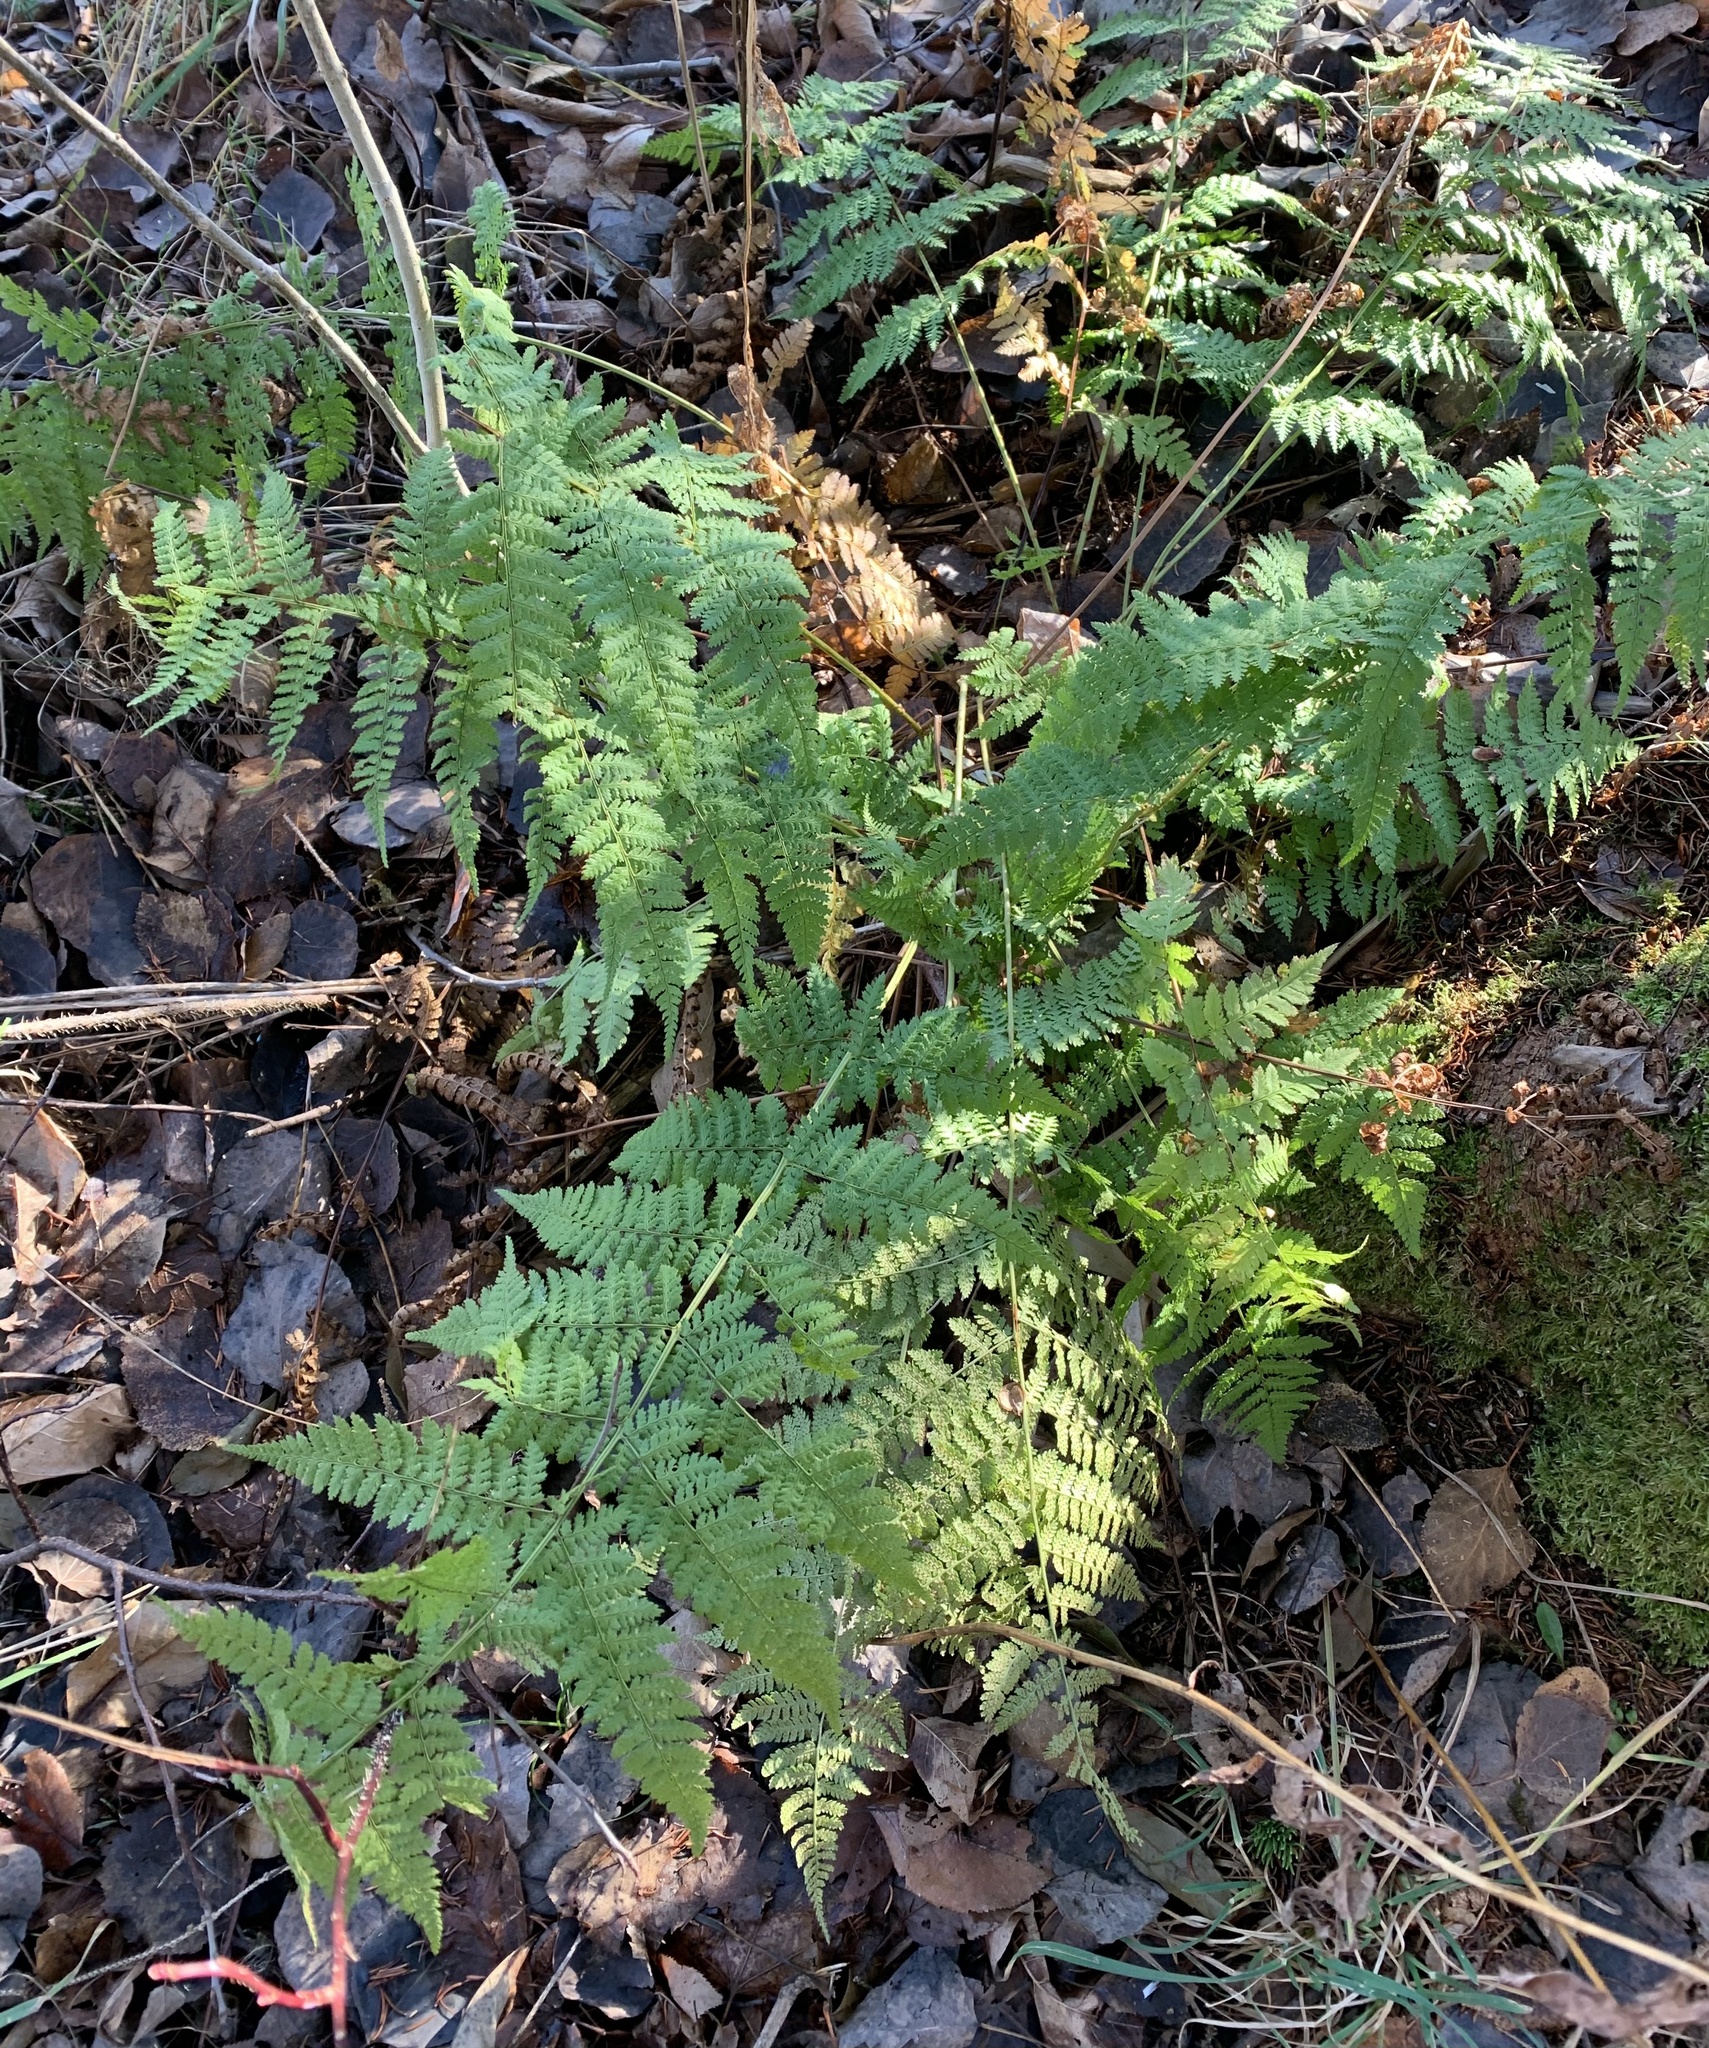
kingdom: Plantae
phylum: Tracheophyta
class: Polypodiopsida
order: Polypodiales
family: Dryopteridaceae
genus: Dryopteris
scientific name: Dryopteris intermedia
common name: Evergreen wood fern
